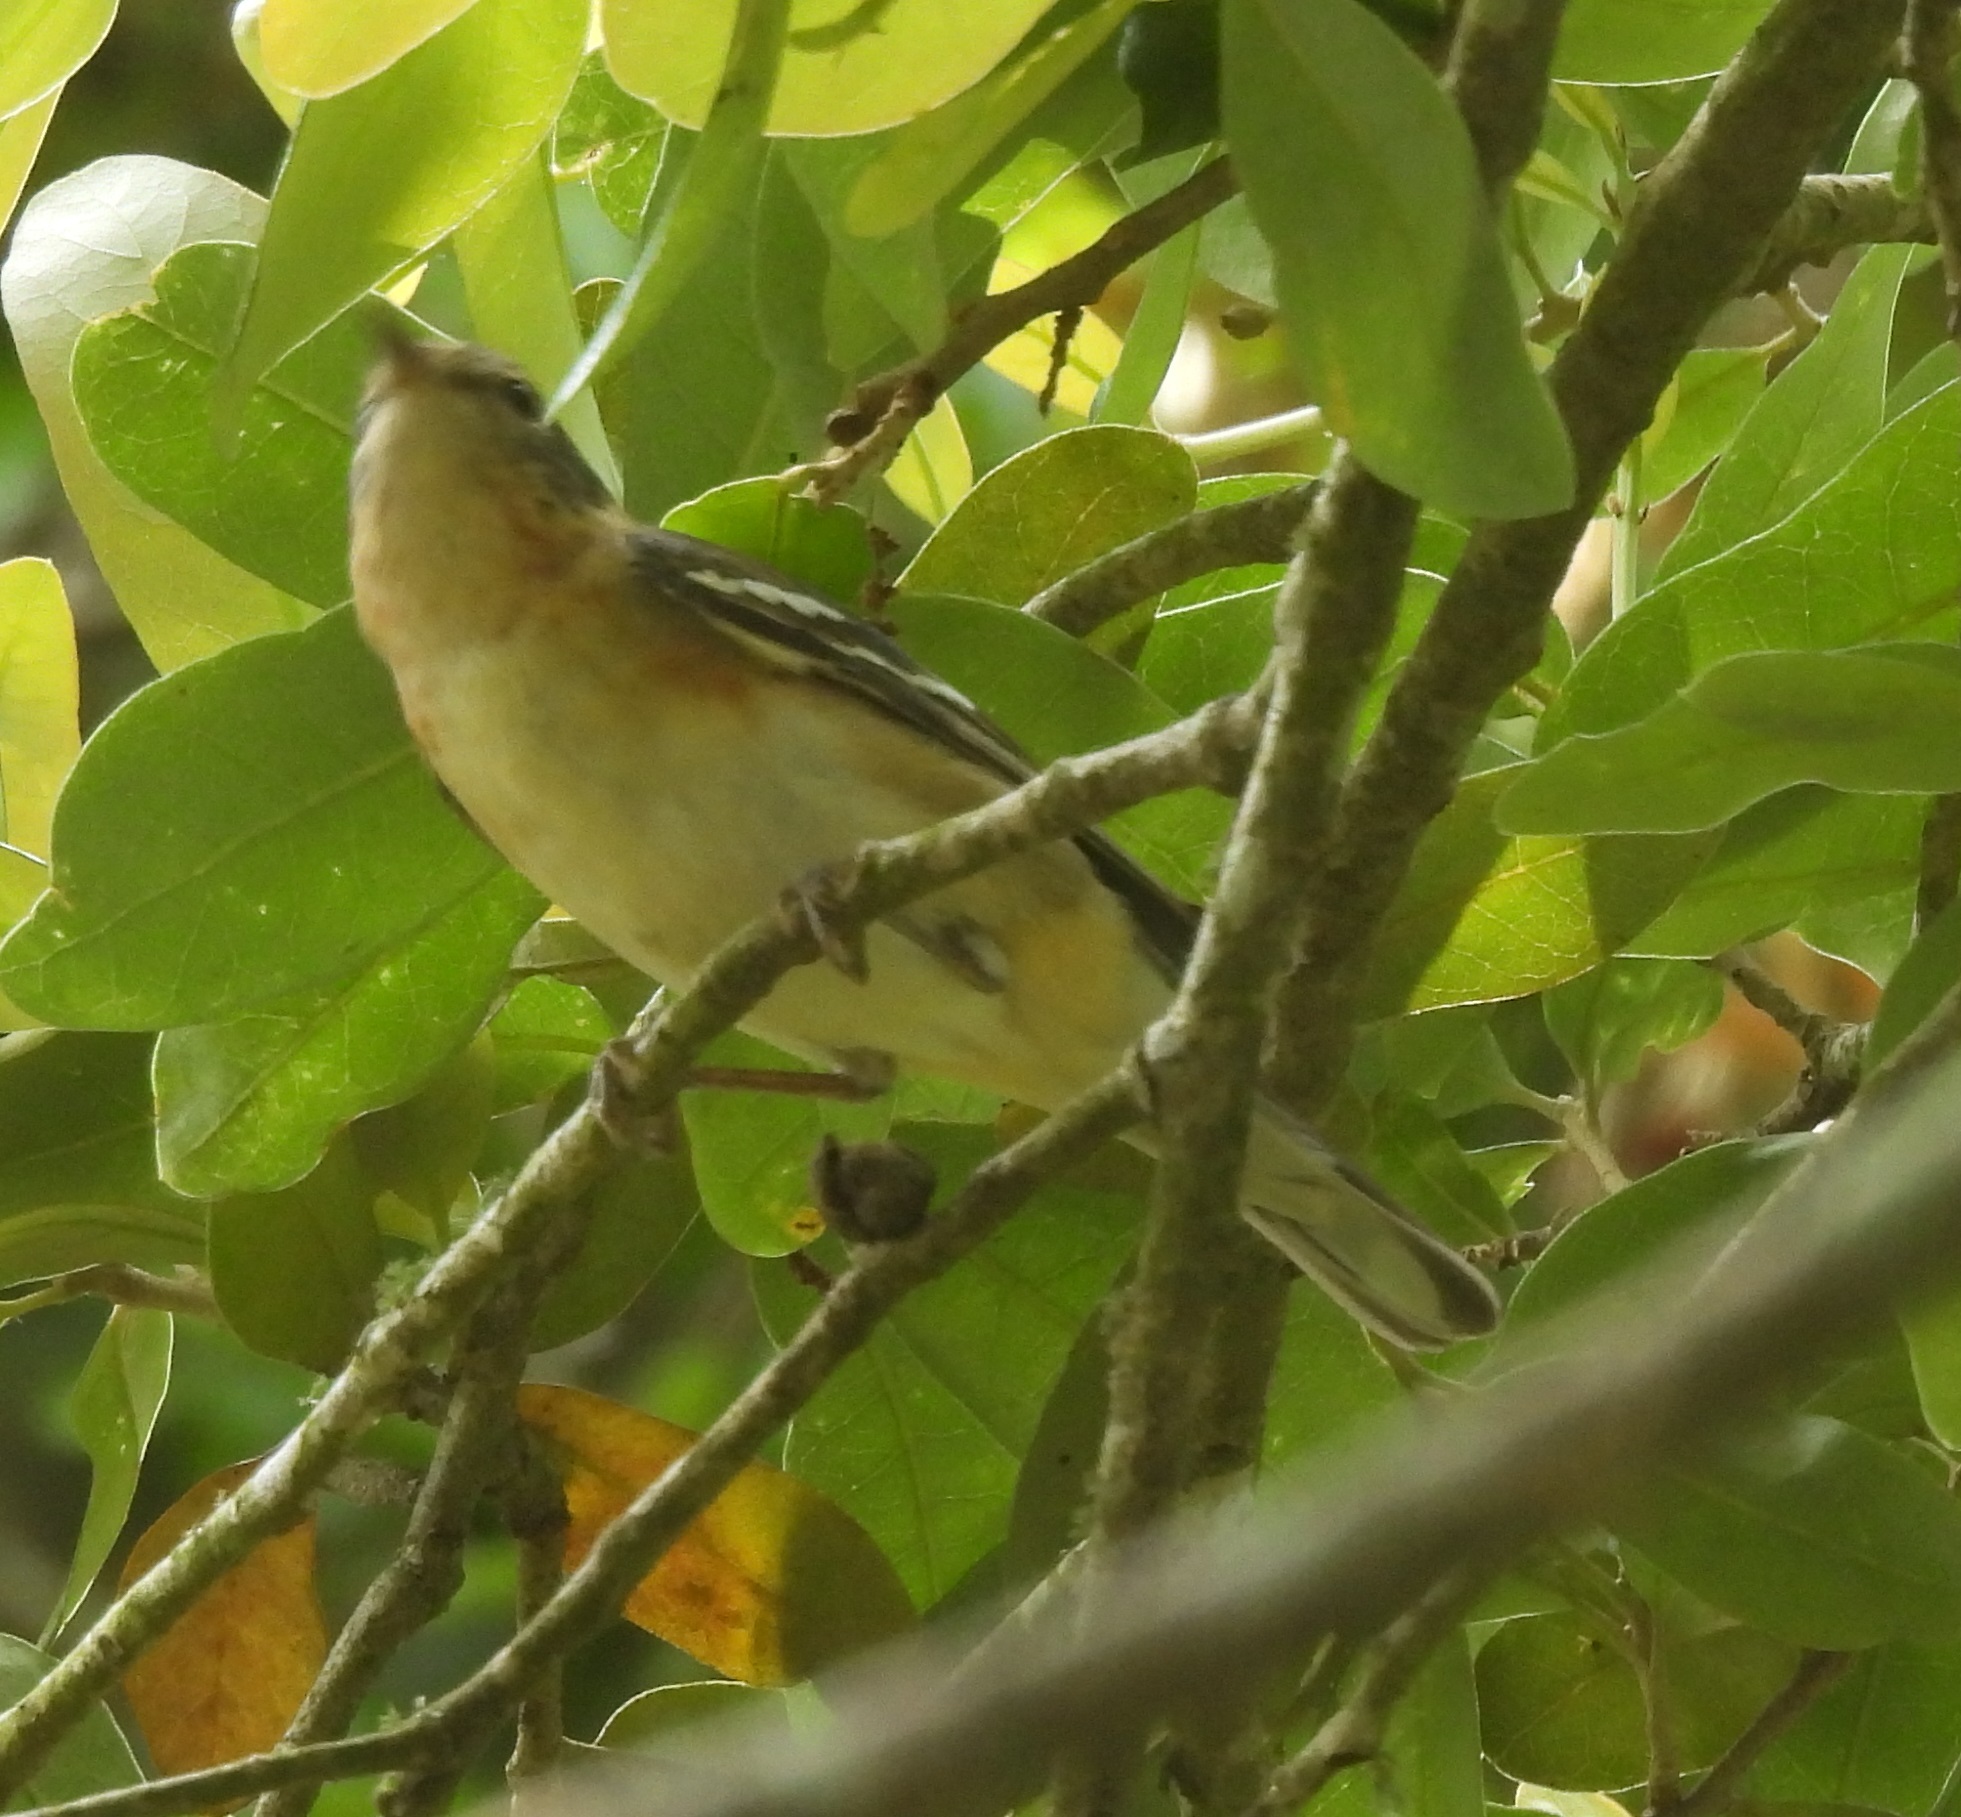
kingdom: Animalia
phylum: Chordata
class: Aves
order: Passeriformes
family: Parulidae
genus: Setophaga
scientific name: Setophaga castanea
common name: Bay-breasted warbler
